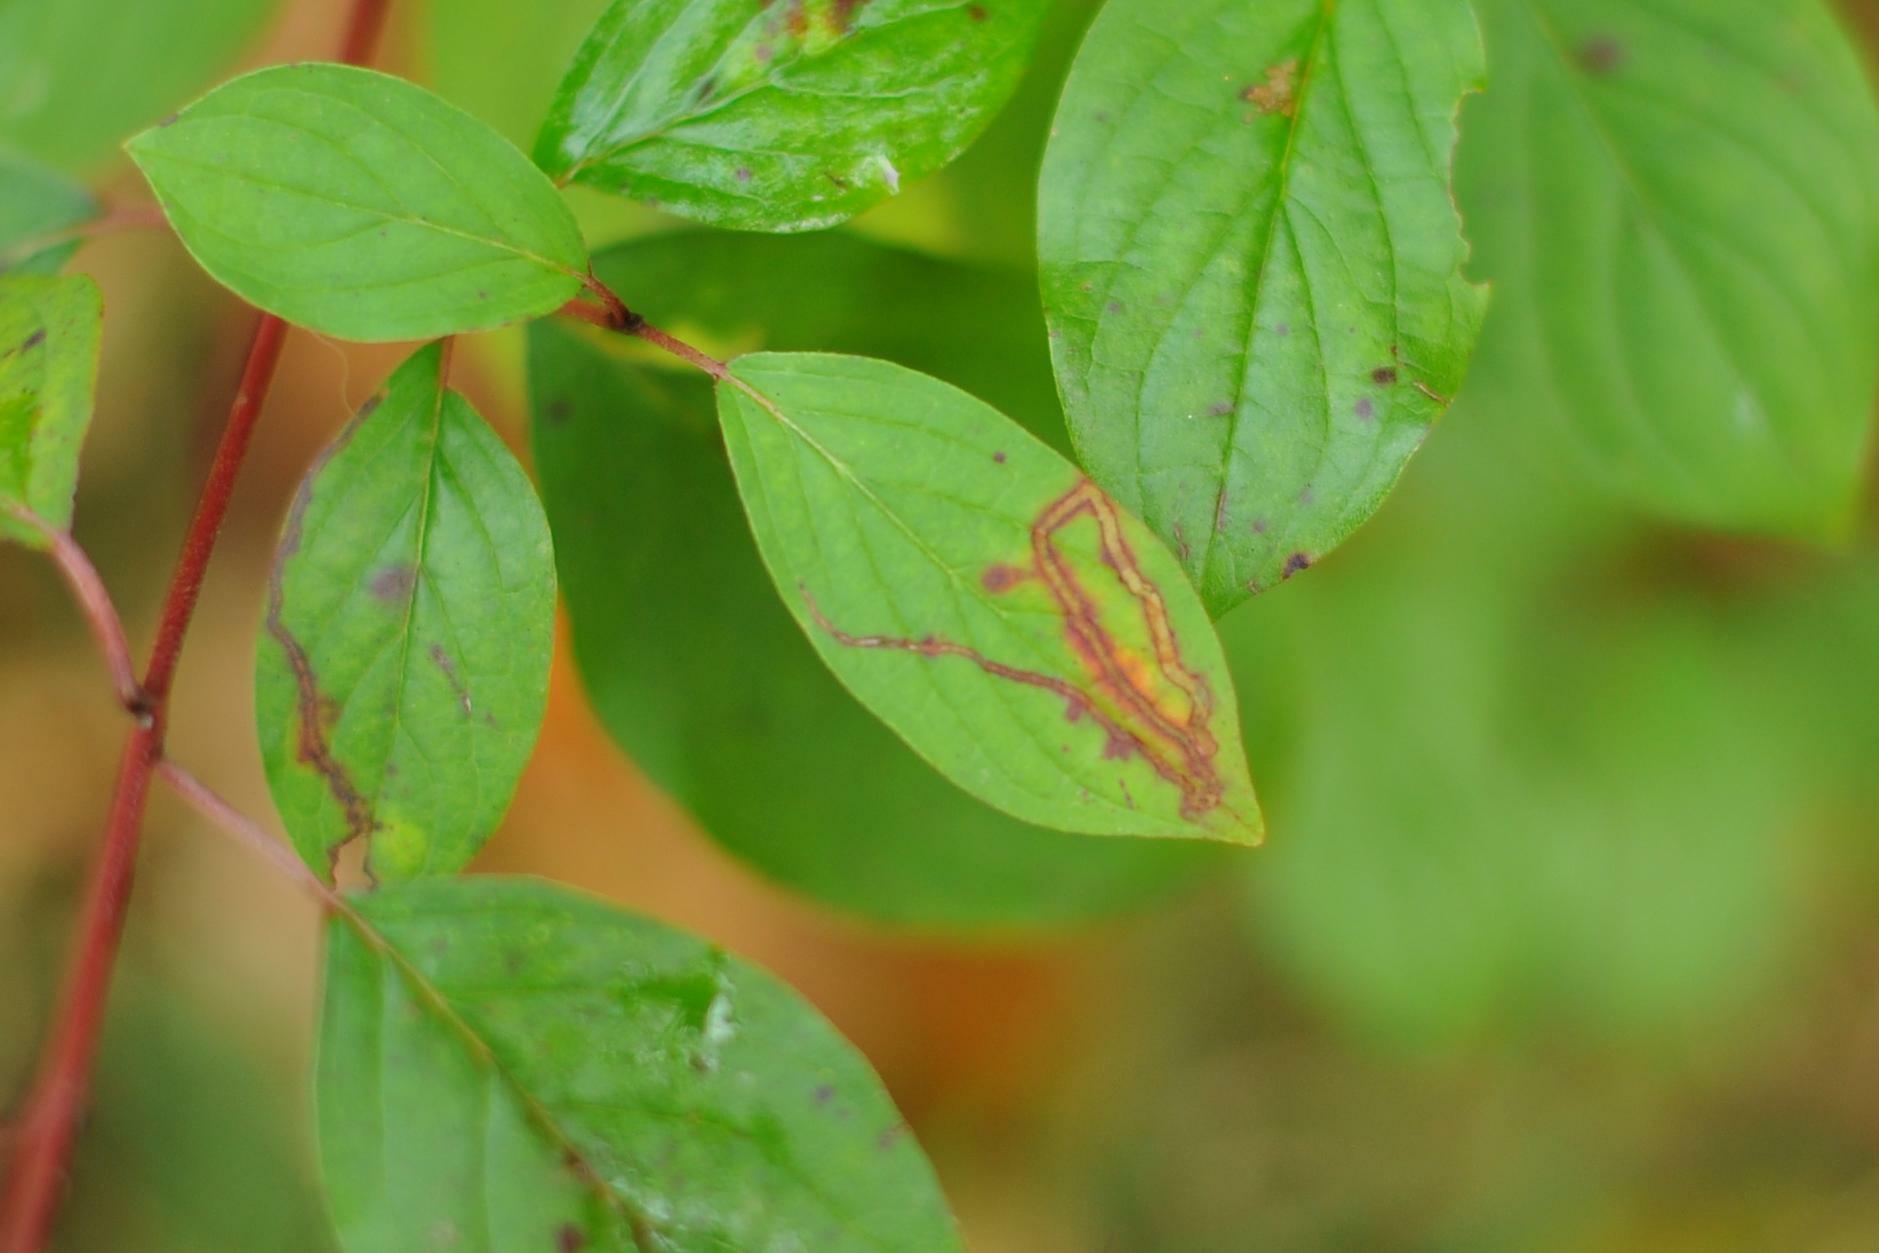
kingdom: Animalia
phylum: Arthropoda
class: Insecta
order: Diptera
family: Agromyzidae
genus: Phytomyza
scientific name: Phytomyza agromyzina
